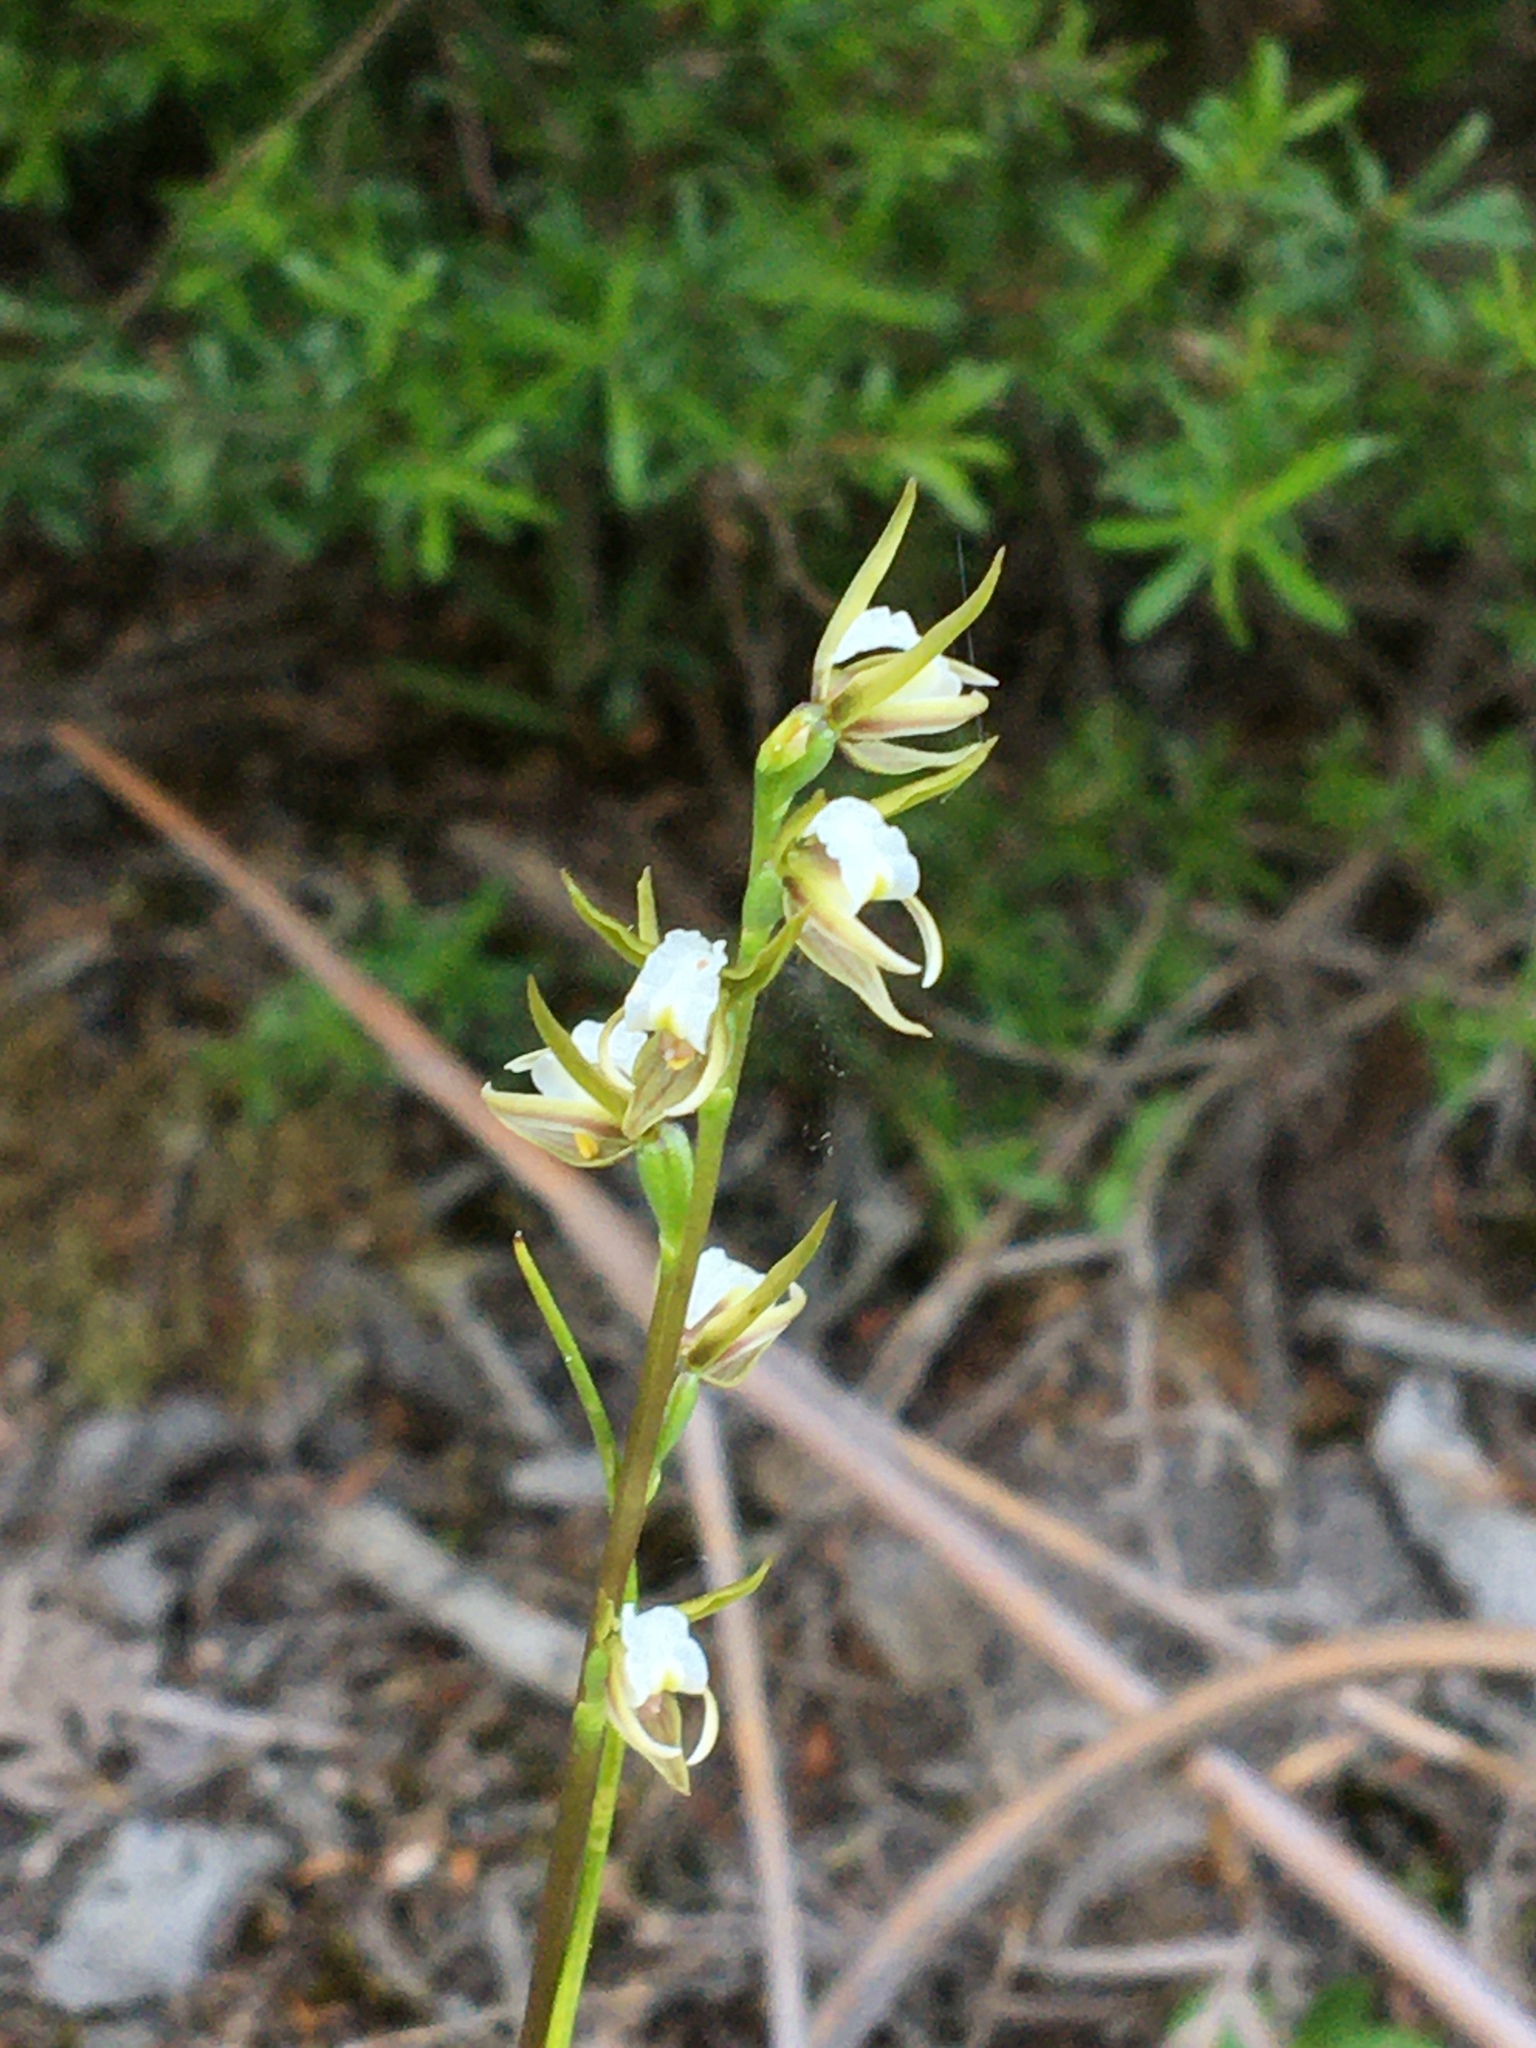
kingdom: Plantae
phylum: Tracheophyta
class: Liliopsida
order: Asparagales
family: Orchidaceae
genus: Prasophyllum
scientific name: Prasophyllum odoratum
